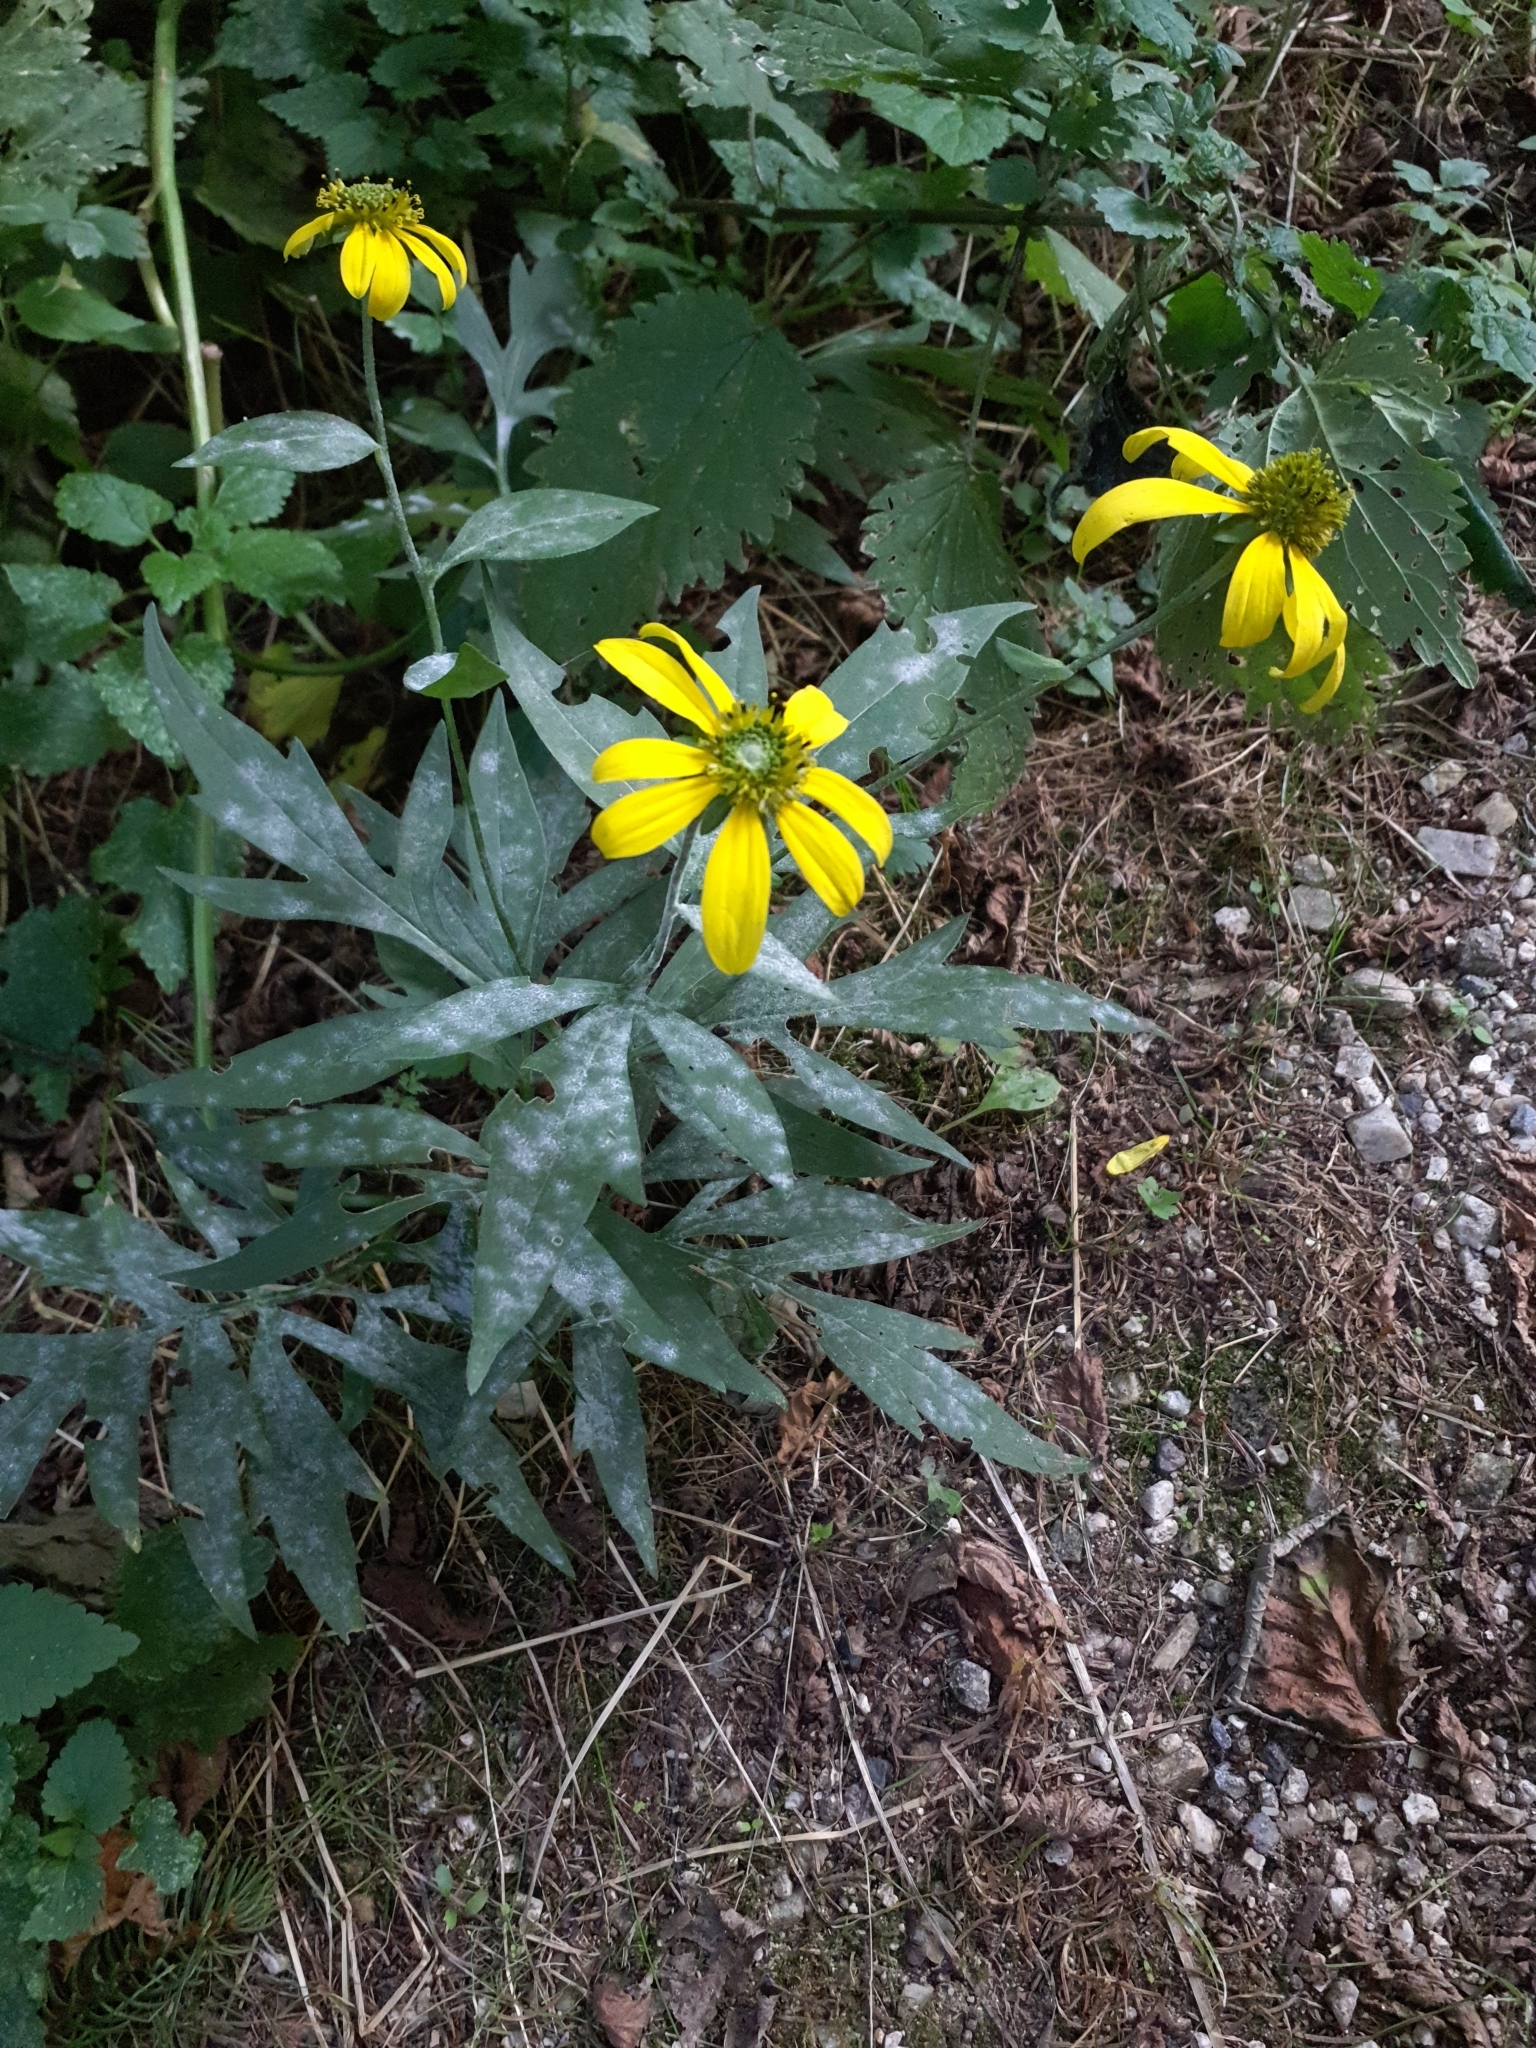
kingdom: Plantae
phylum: Tracheophyta
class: Magnoliopsida
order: Asterales
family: Asteraceae
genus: Rudbeckia
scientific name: Rudbeckia laciniata
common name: Coneflower
